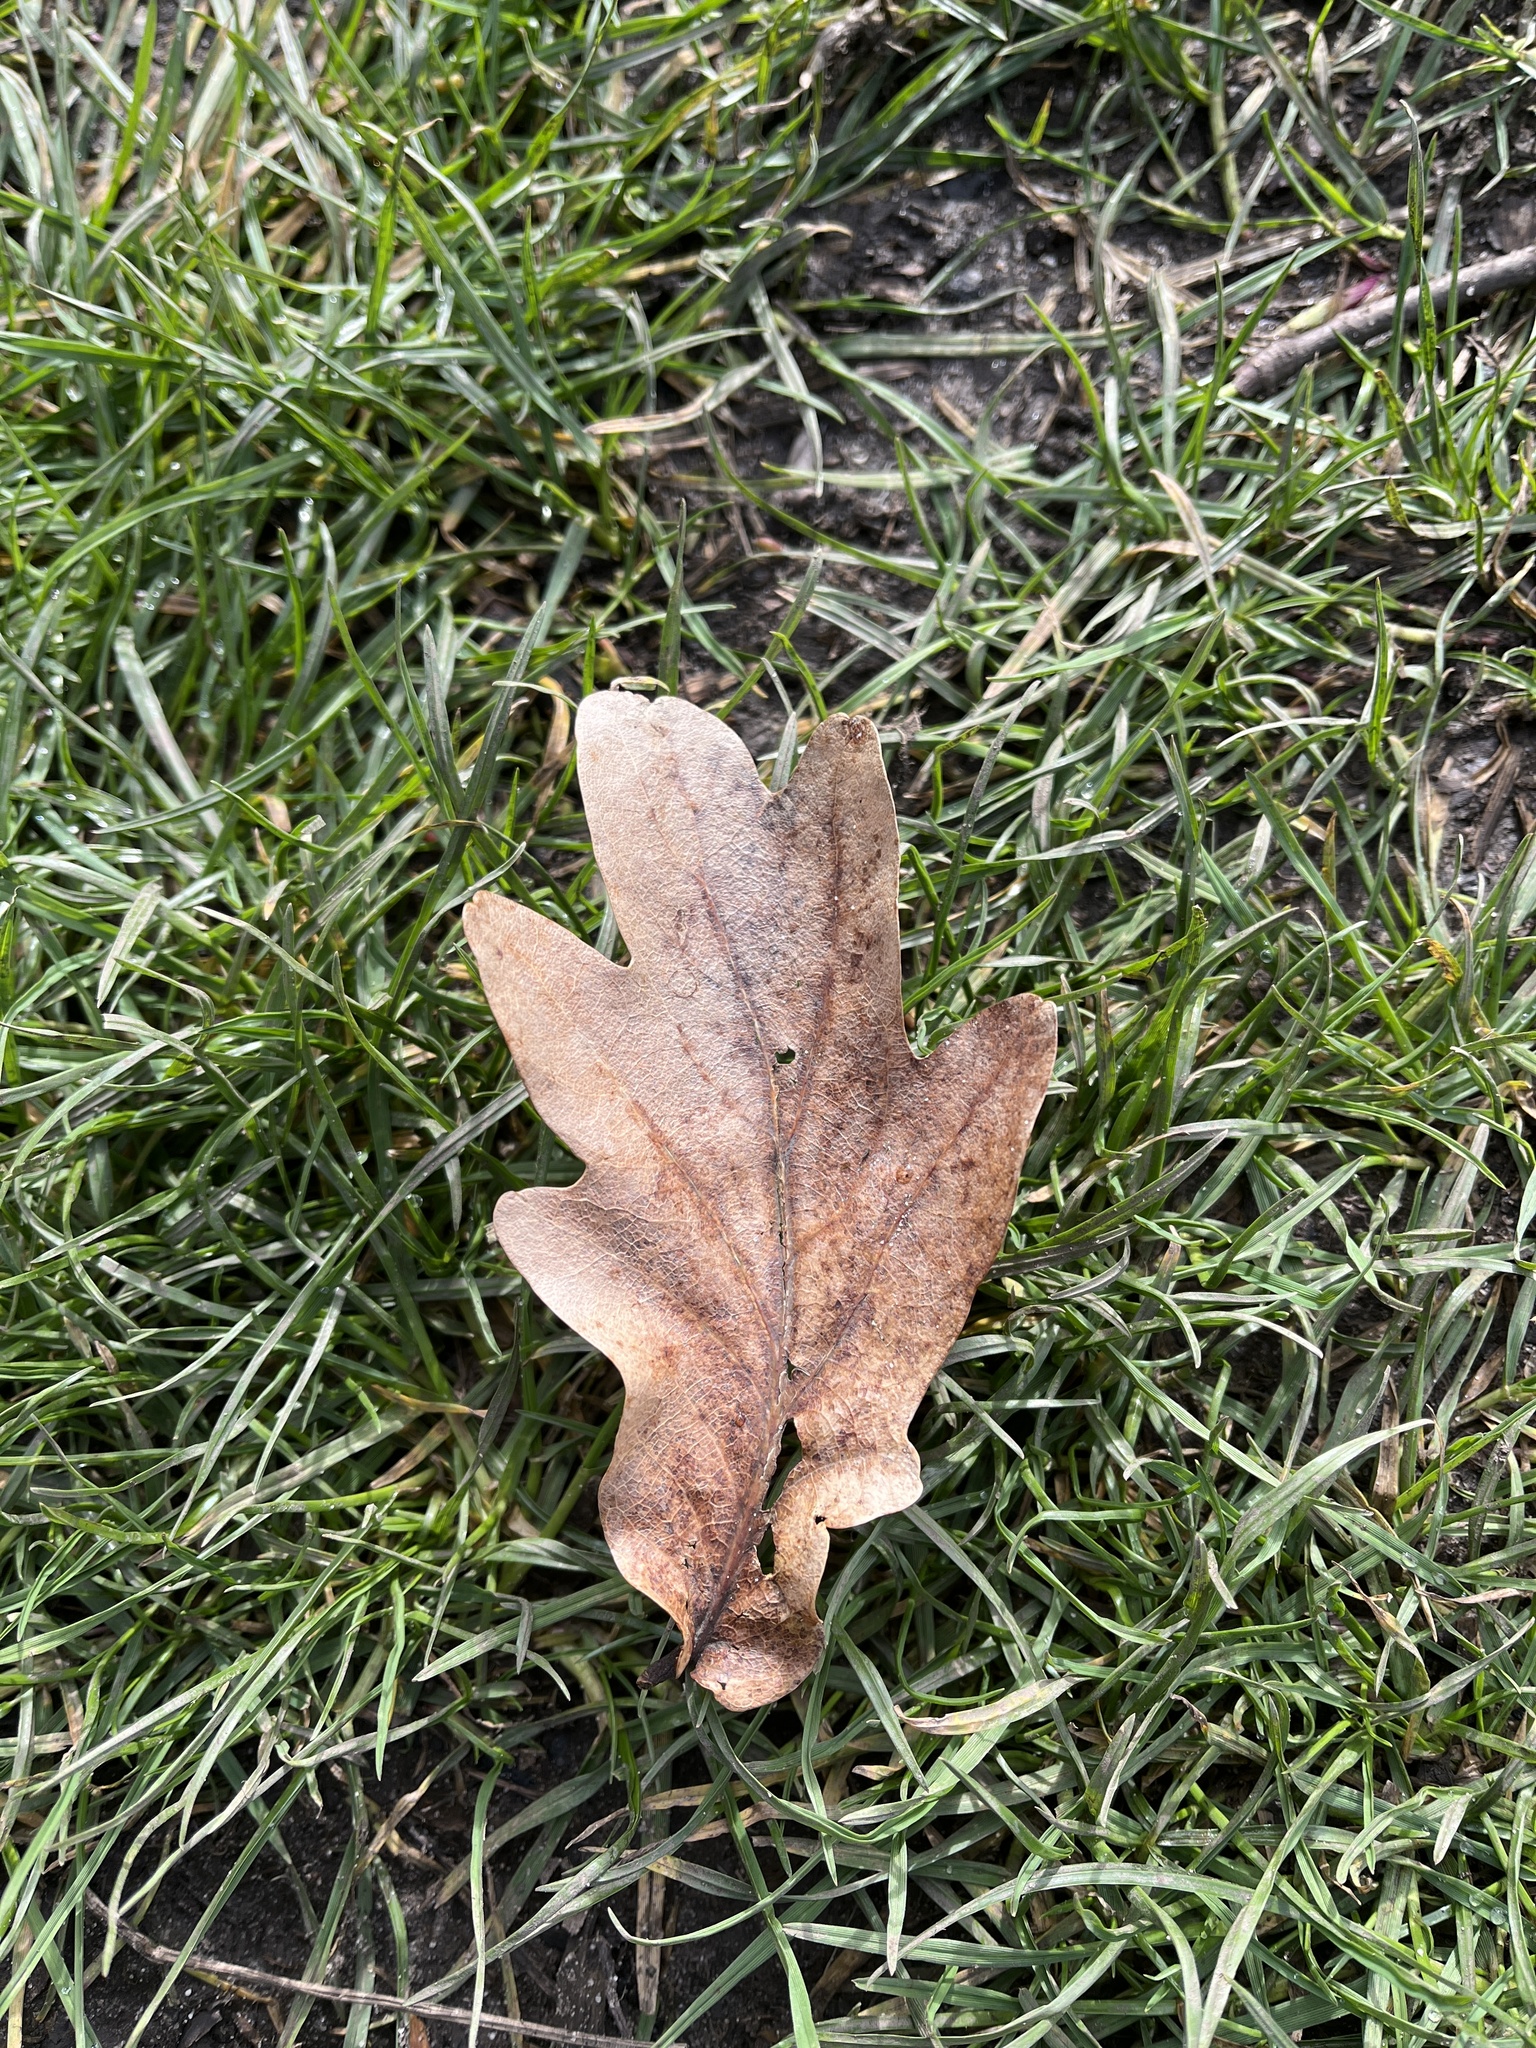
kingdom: Plantae
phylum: Tracheophyta
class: Magnoliopsida
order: Fagales
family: Fagaceae
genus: Quercus
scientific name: Quercus robur
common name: Pedunculate oak
